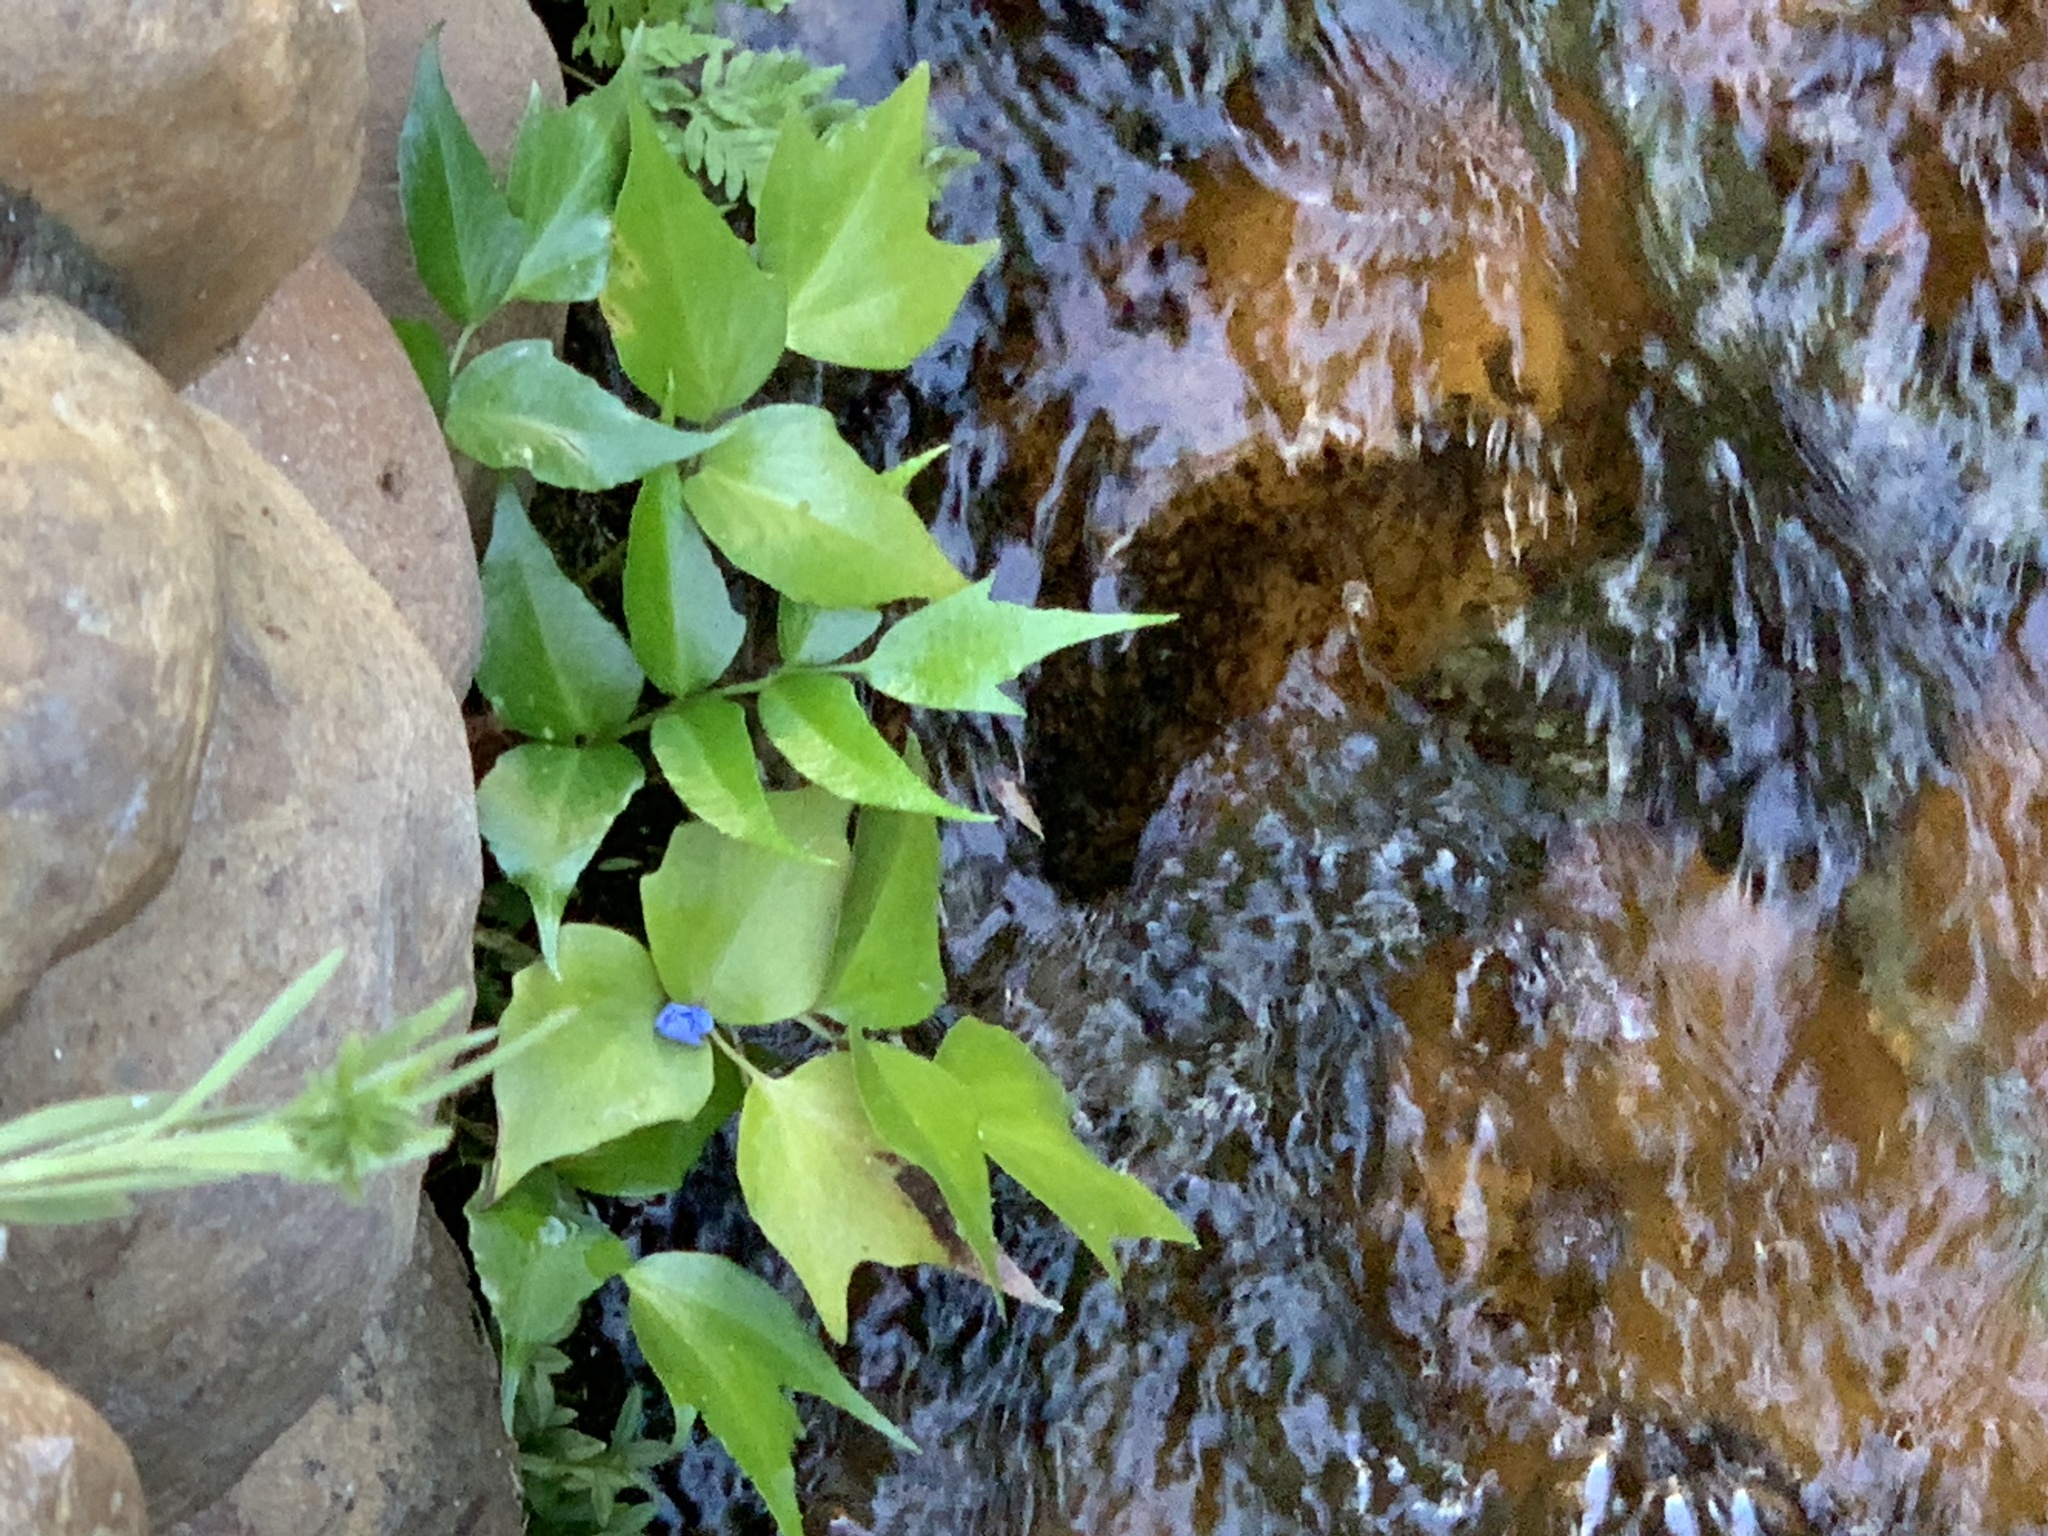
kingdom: Plantae
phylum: Tracheophyta
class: Polypodiopsida
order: Polypodiales
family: Dryopteridaceae
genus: Cyrtomium
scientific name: Cyrtomium falcatum
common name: House holly-fern
